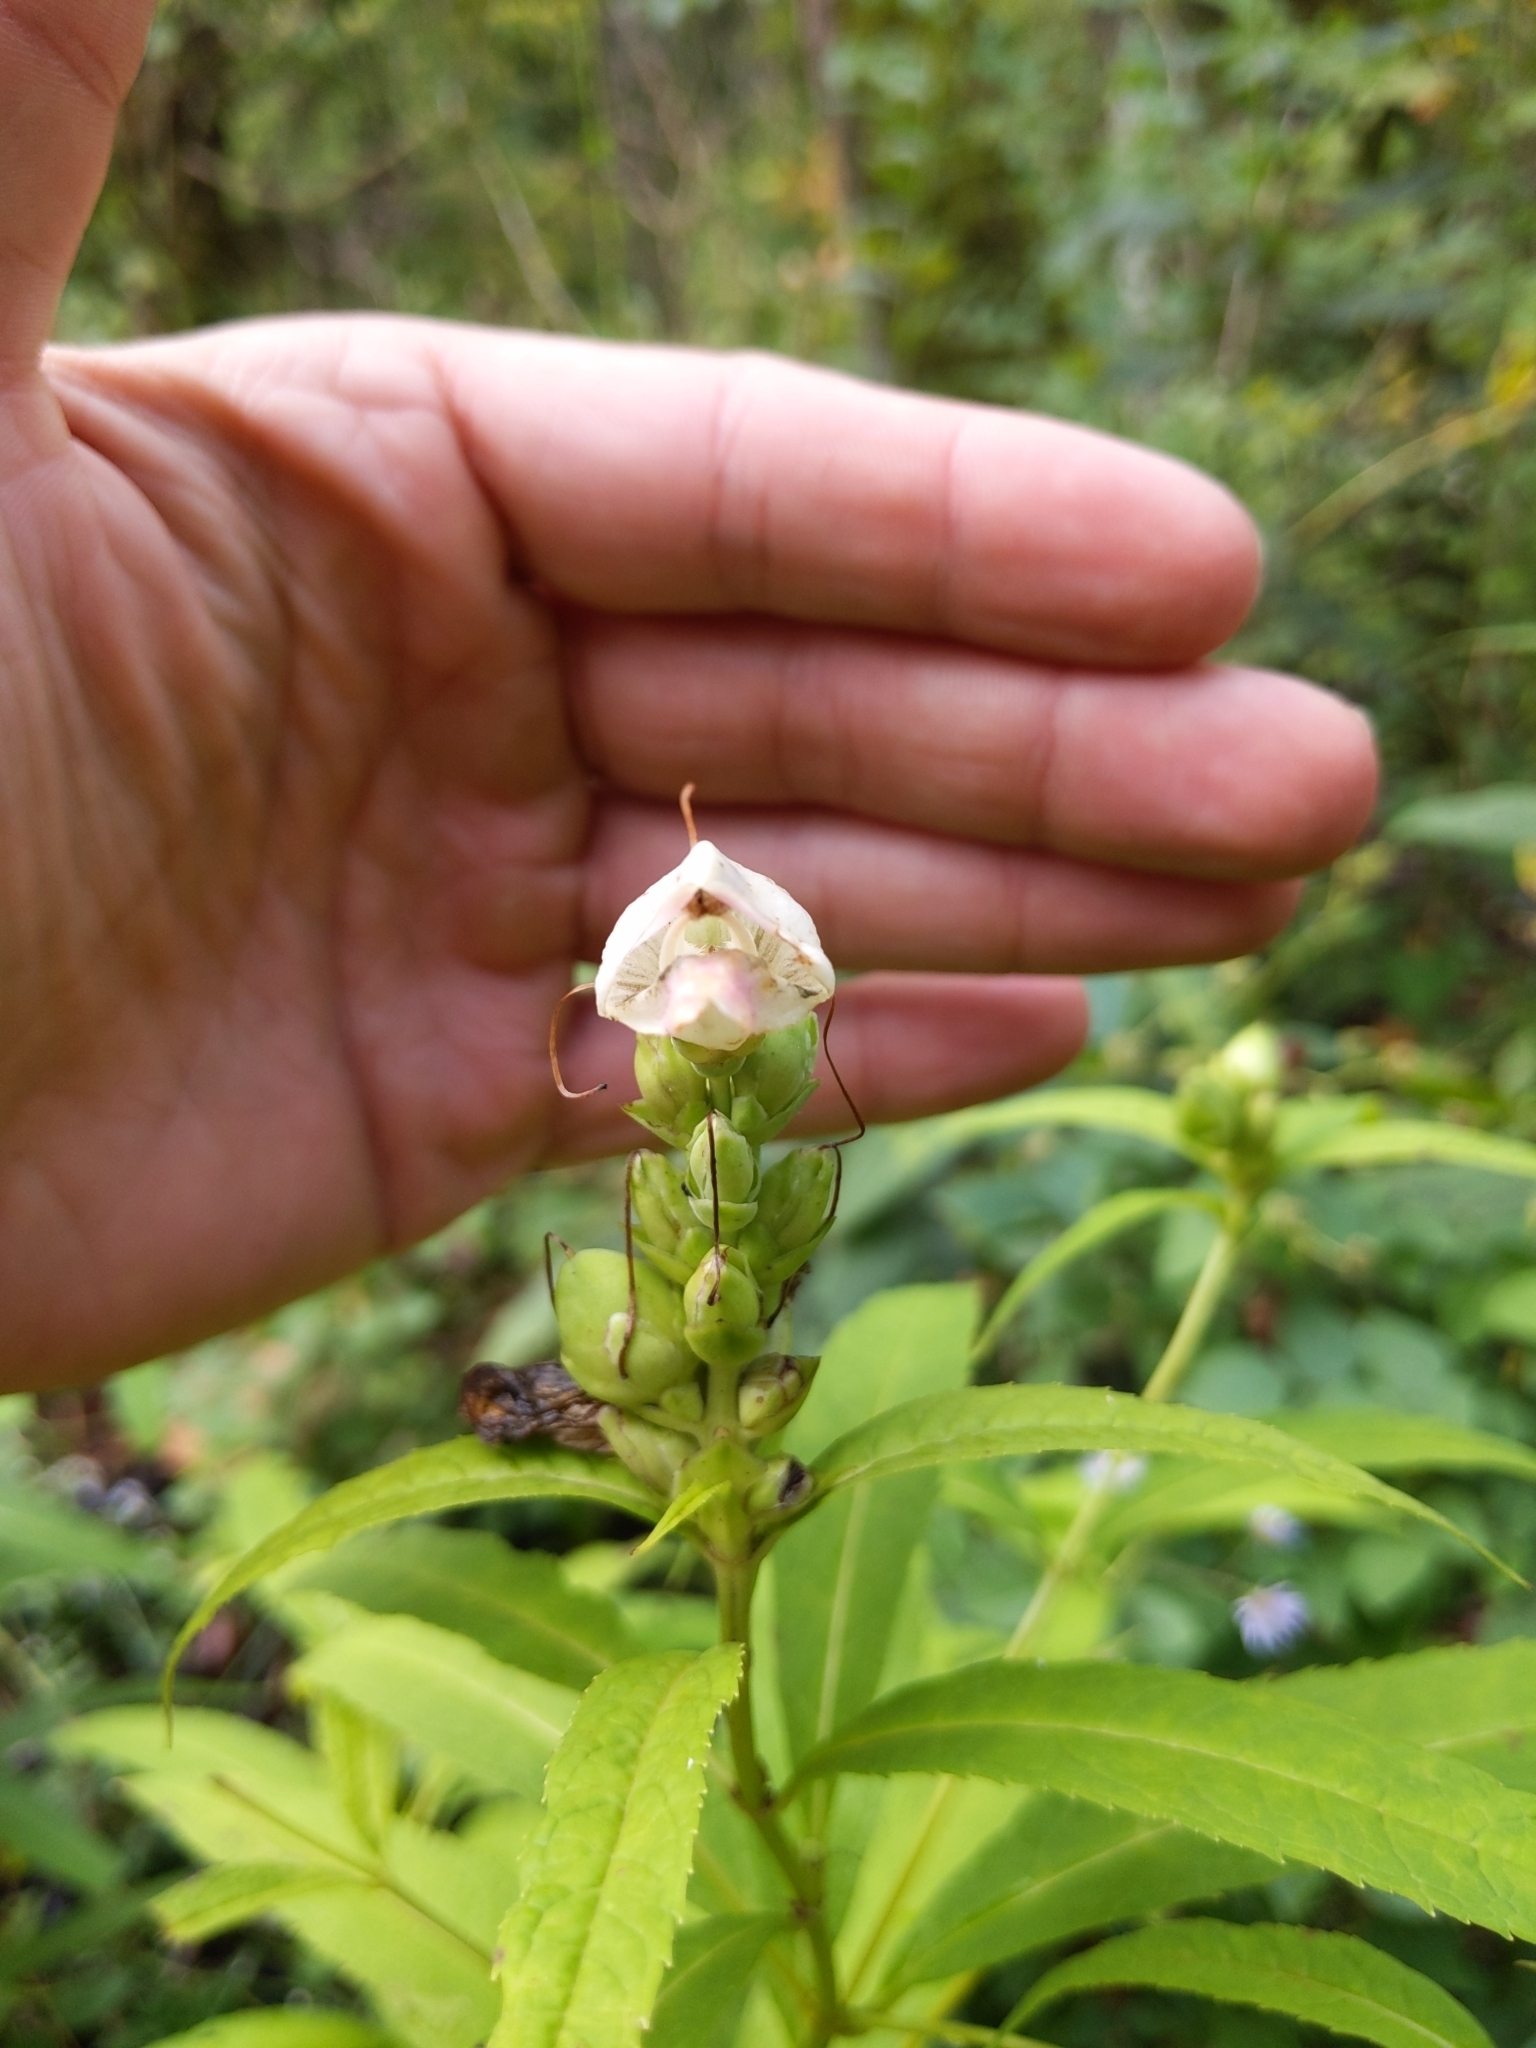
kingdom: Plantae
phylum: Tracheophyta
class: Magnoliopsida
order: Lamiales
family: Plantaginaceae
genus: Chelone
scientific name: Chelone glabra
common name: Snakehead
